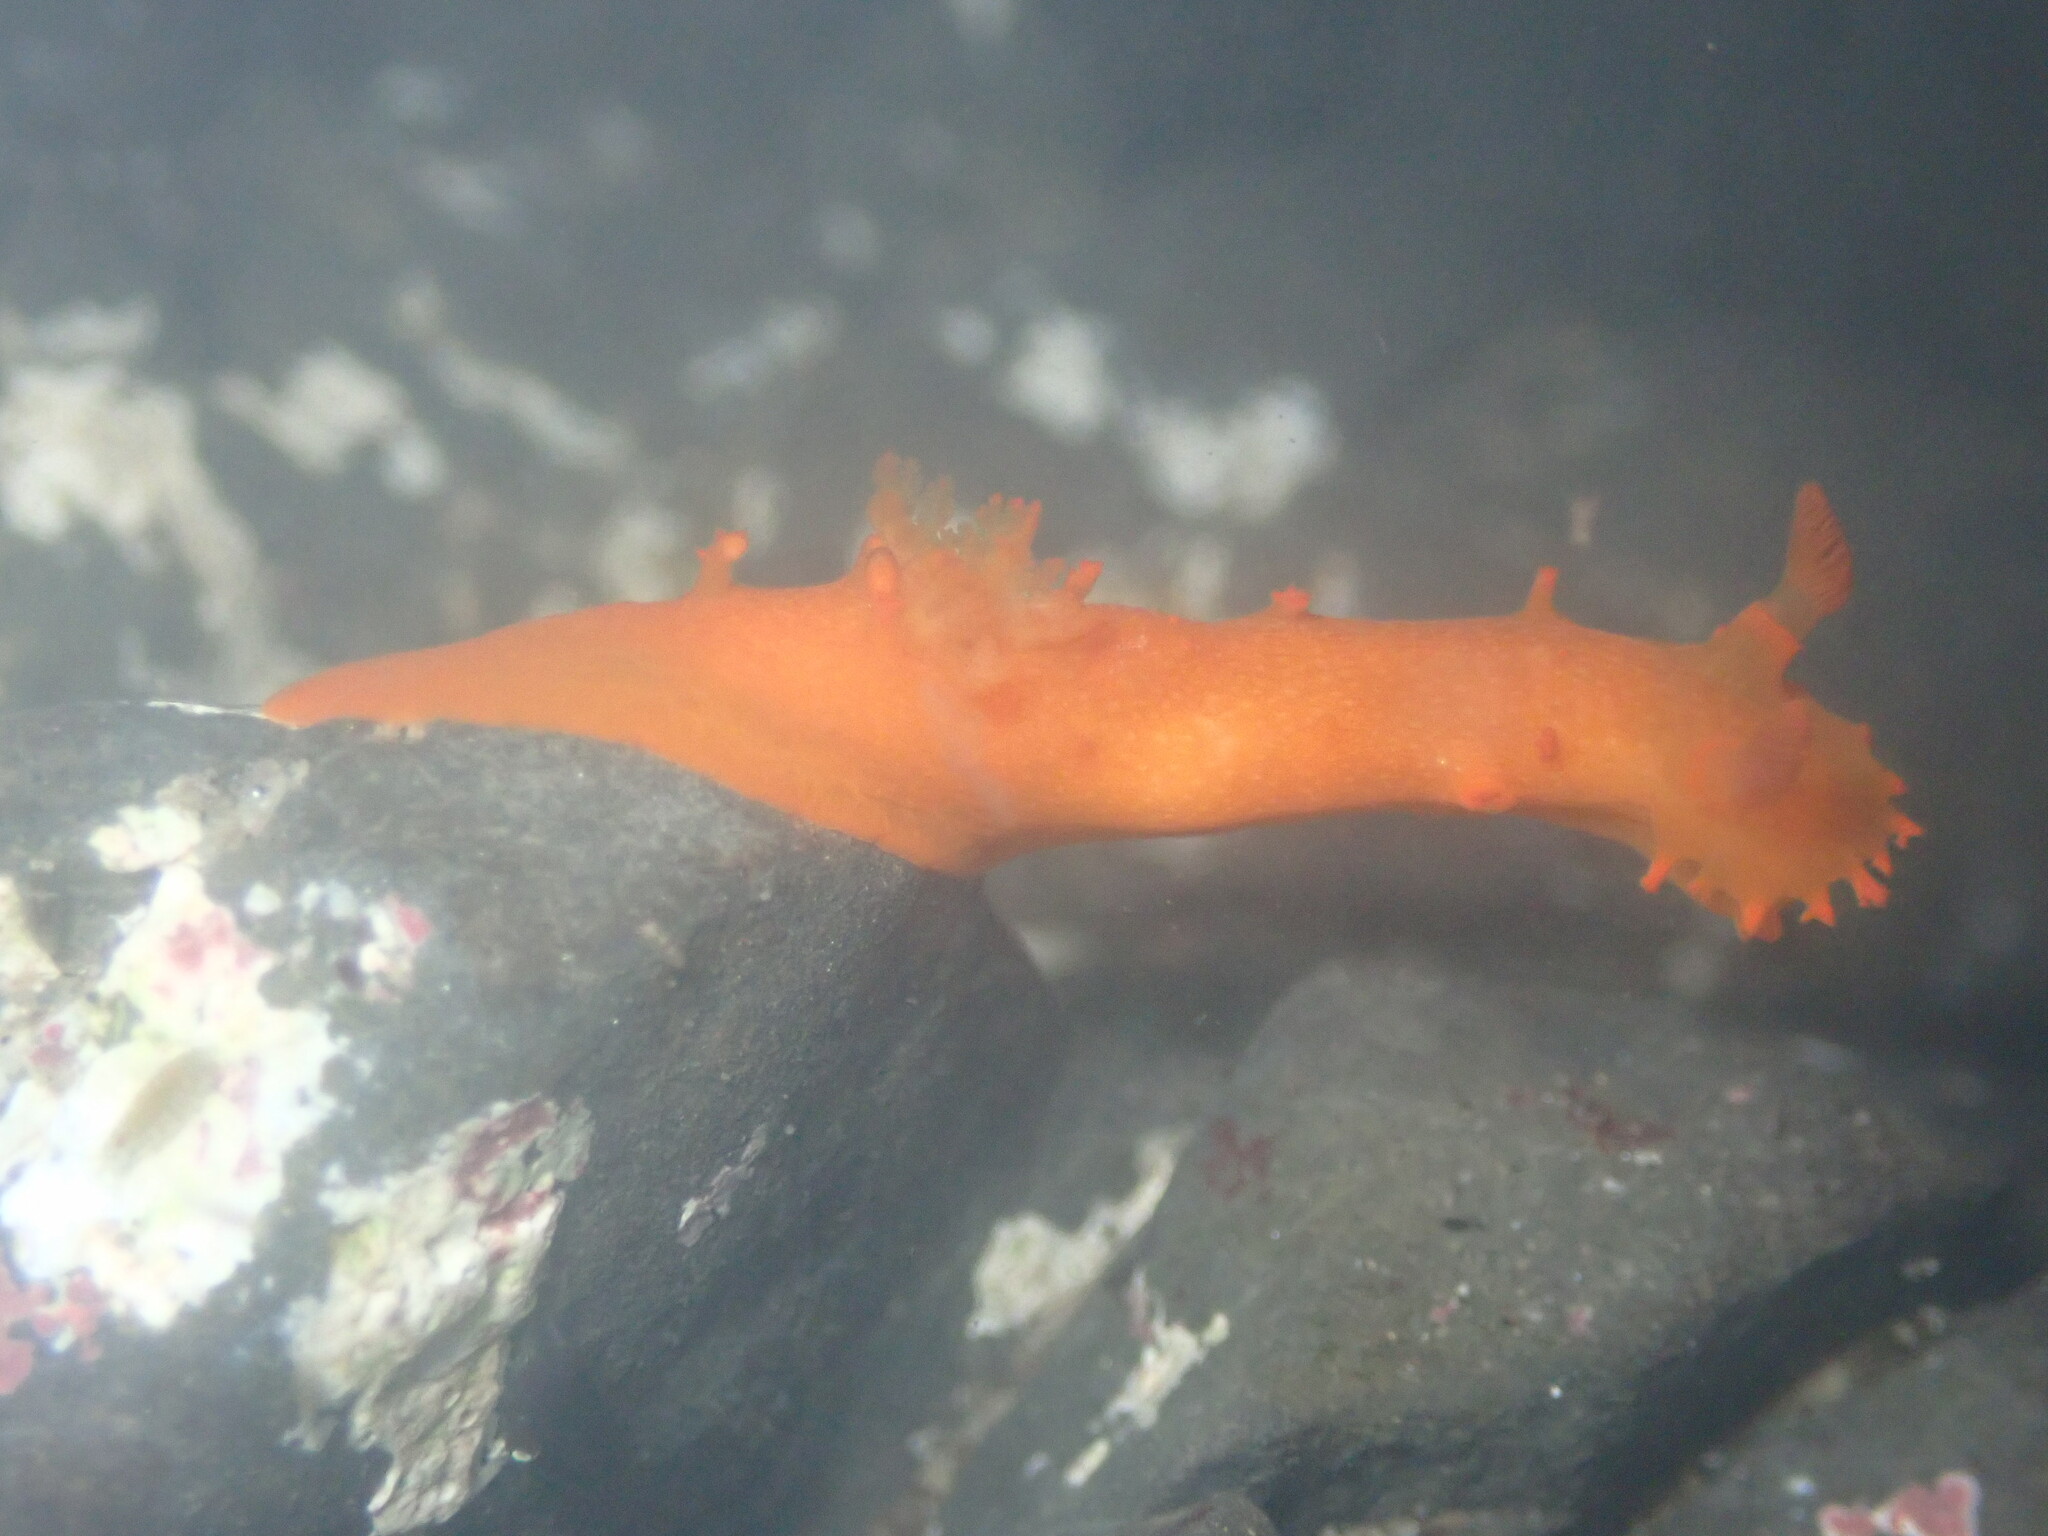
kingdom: Animalia
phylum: Mollusca
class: Gastropoda
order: Nudibranchia
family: Polyceridae
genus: Triopha
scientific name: Triopha maculata
